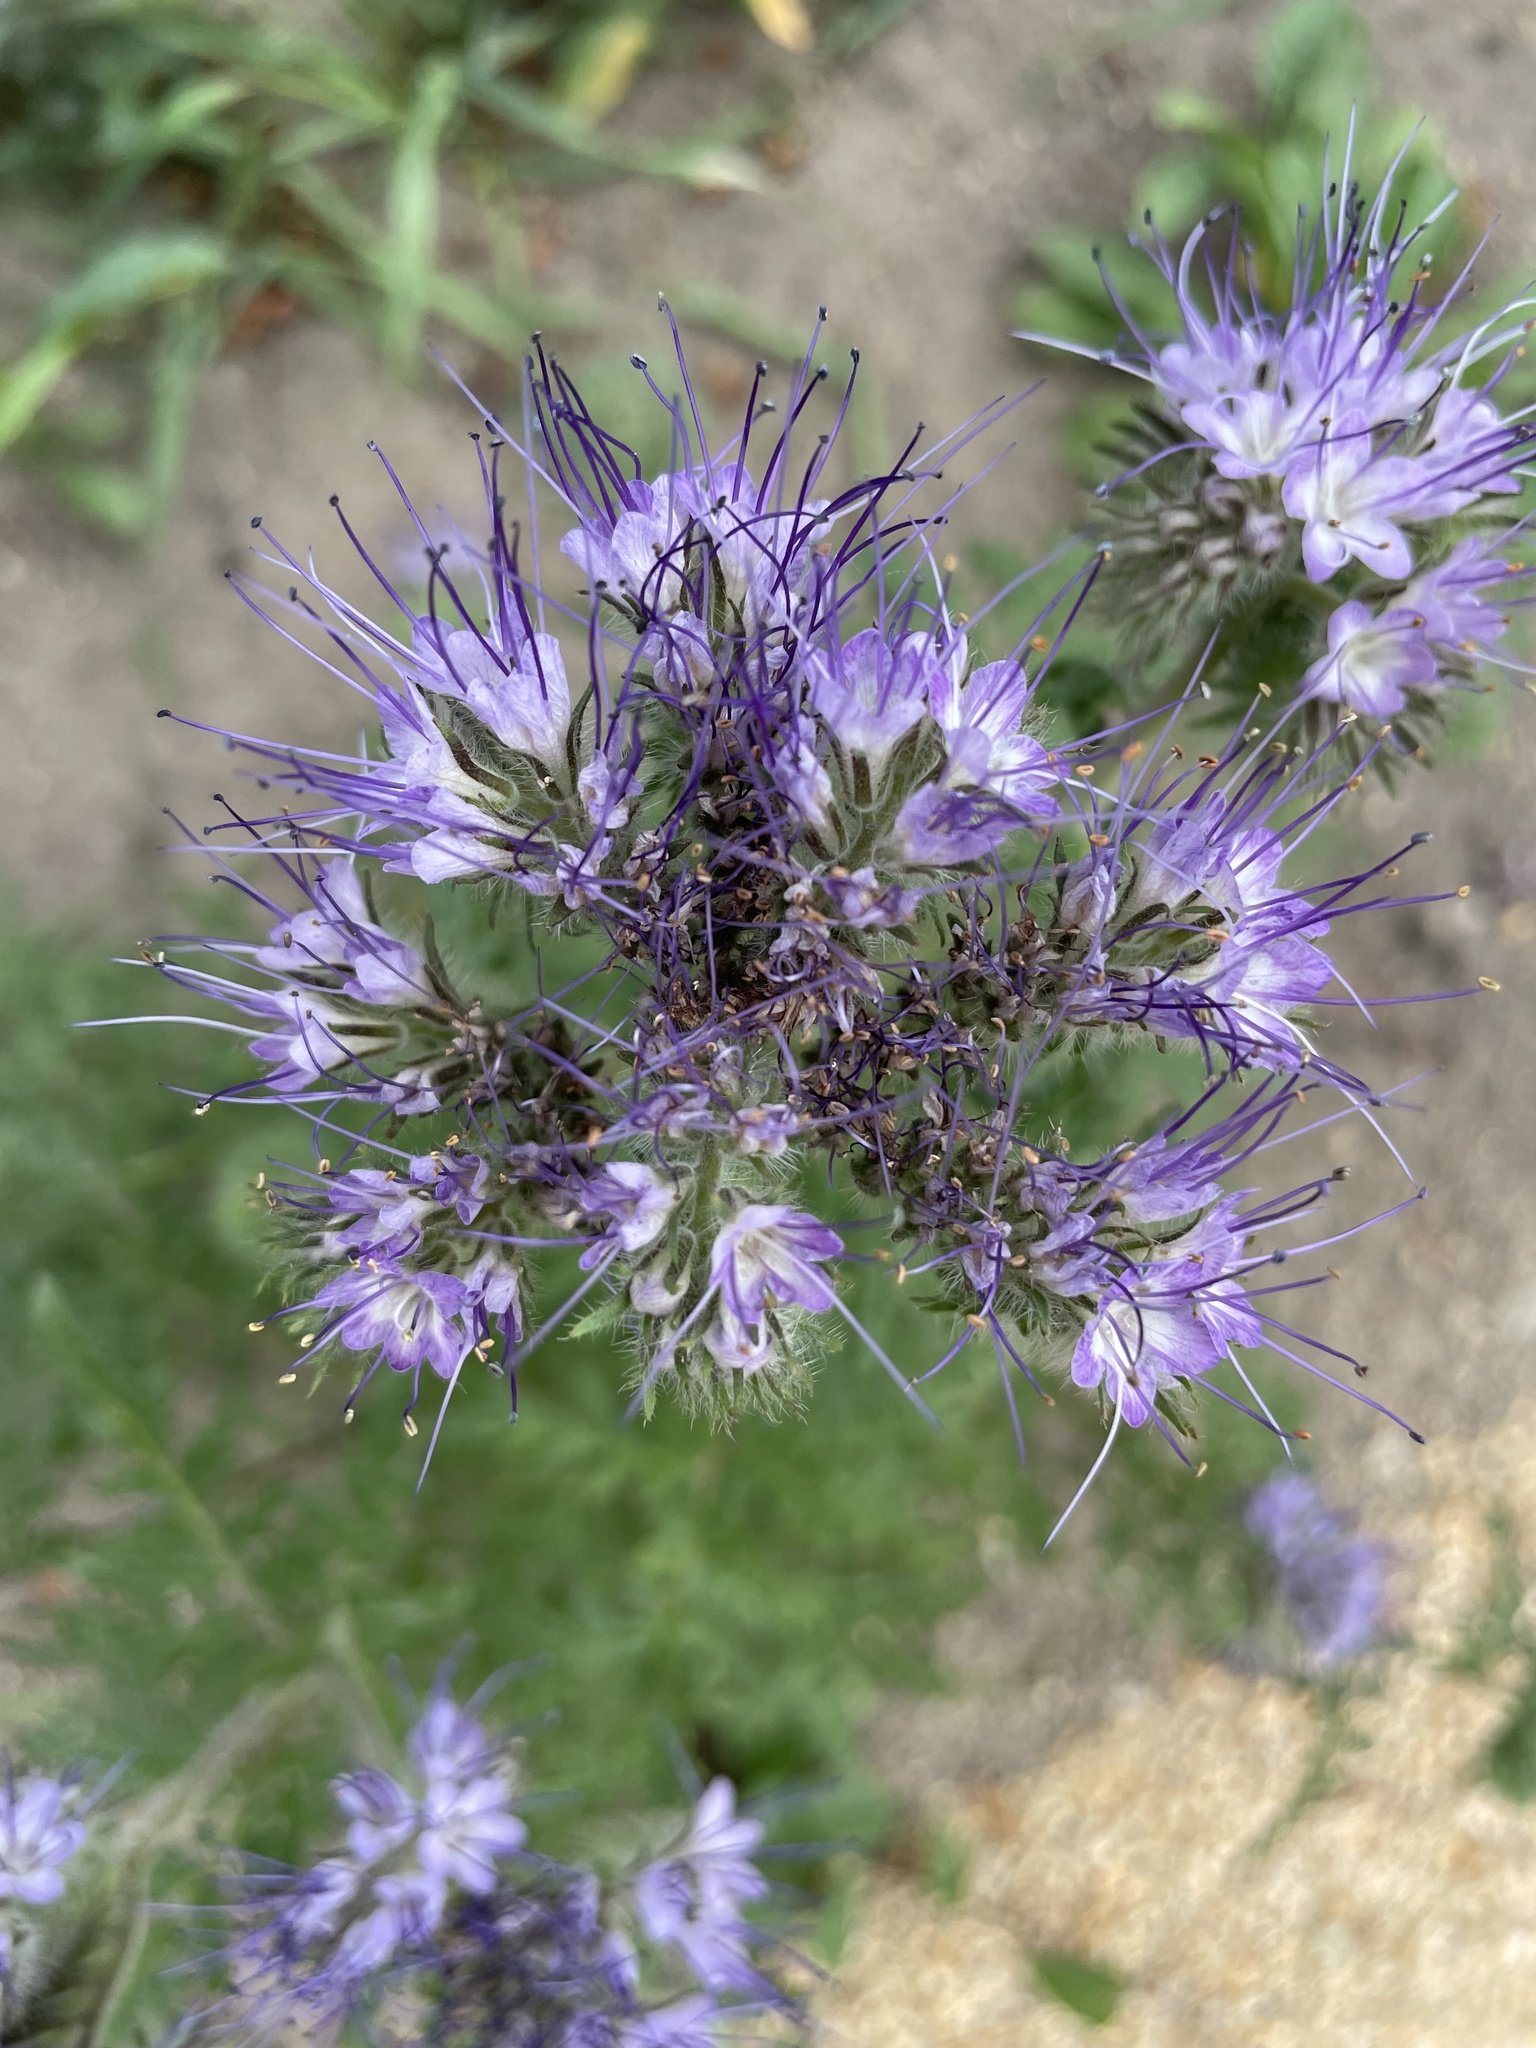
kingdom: Plantae
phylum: Tracheophyta
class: Magnoliopsida
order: Boraginales
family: Hydrophyllaceae
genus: Phacelia
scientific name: Phacelia tanacetifolia
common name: Phacelia
